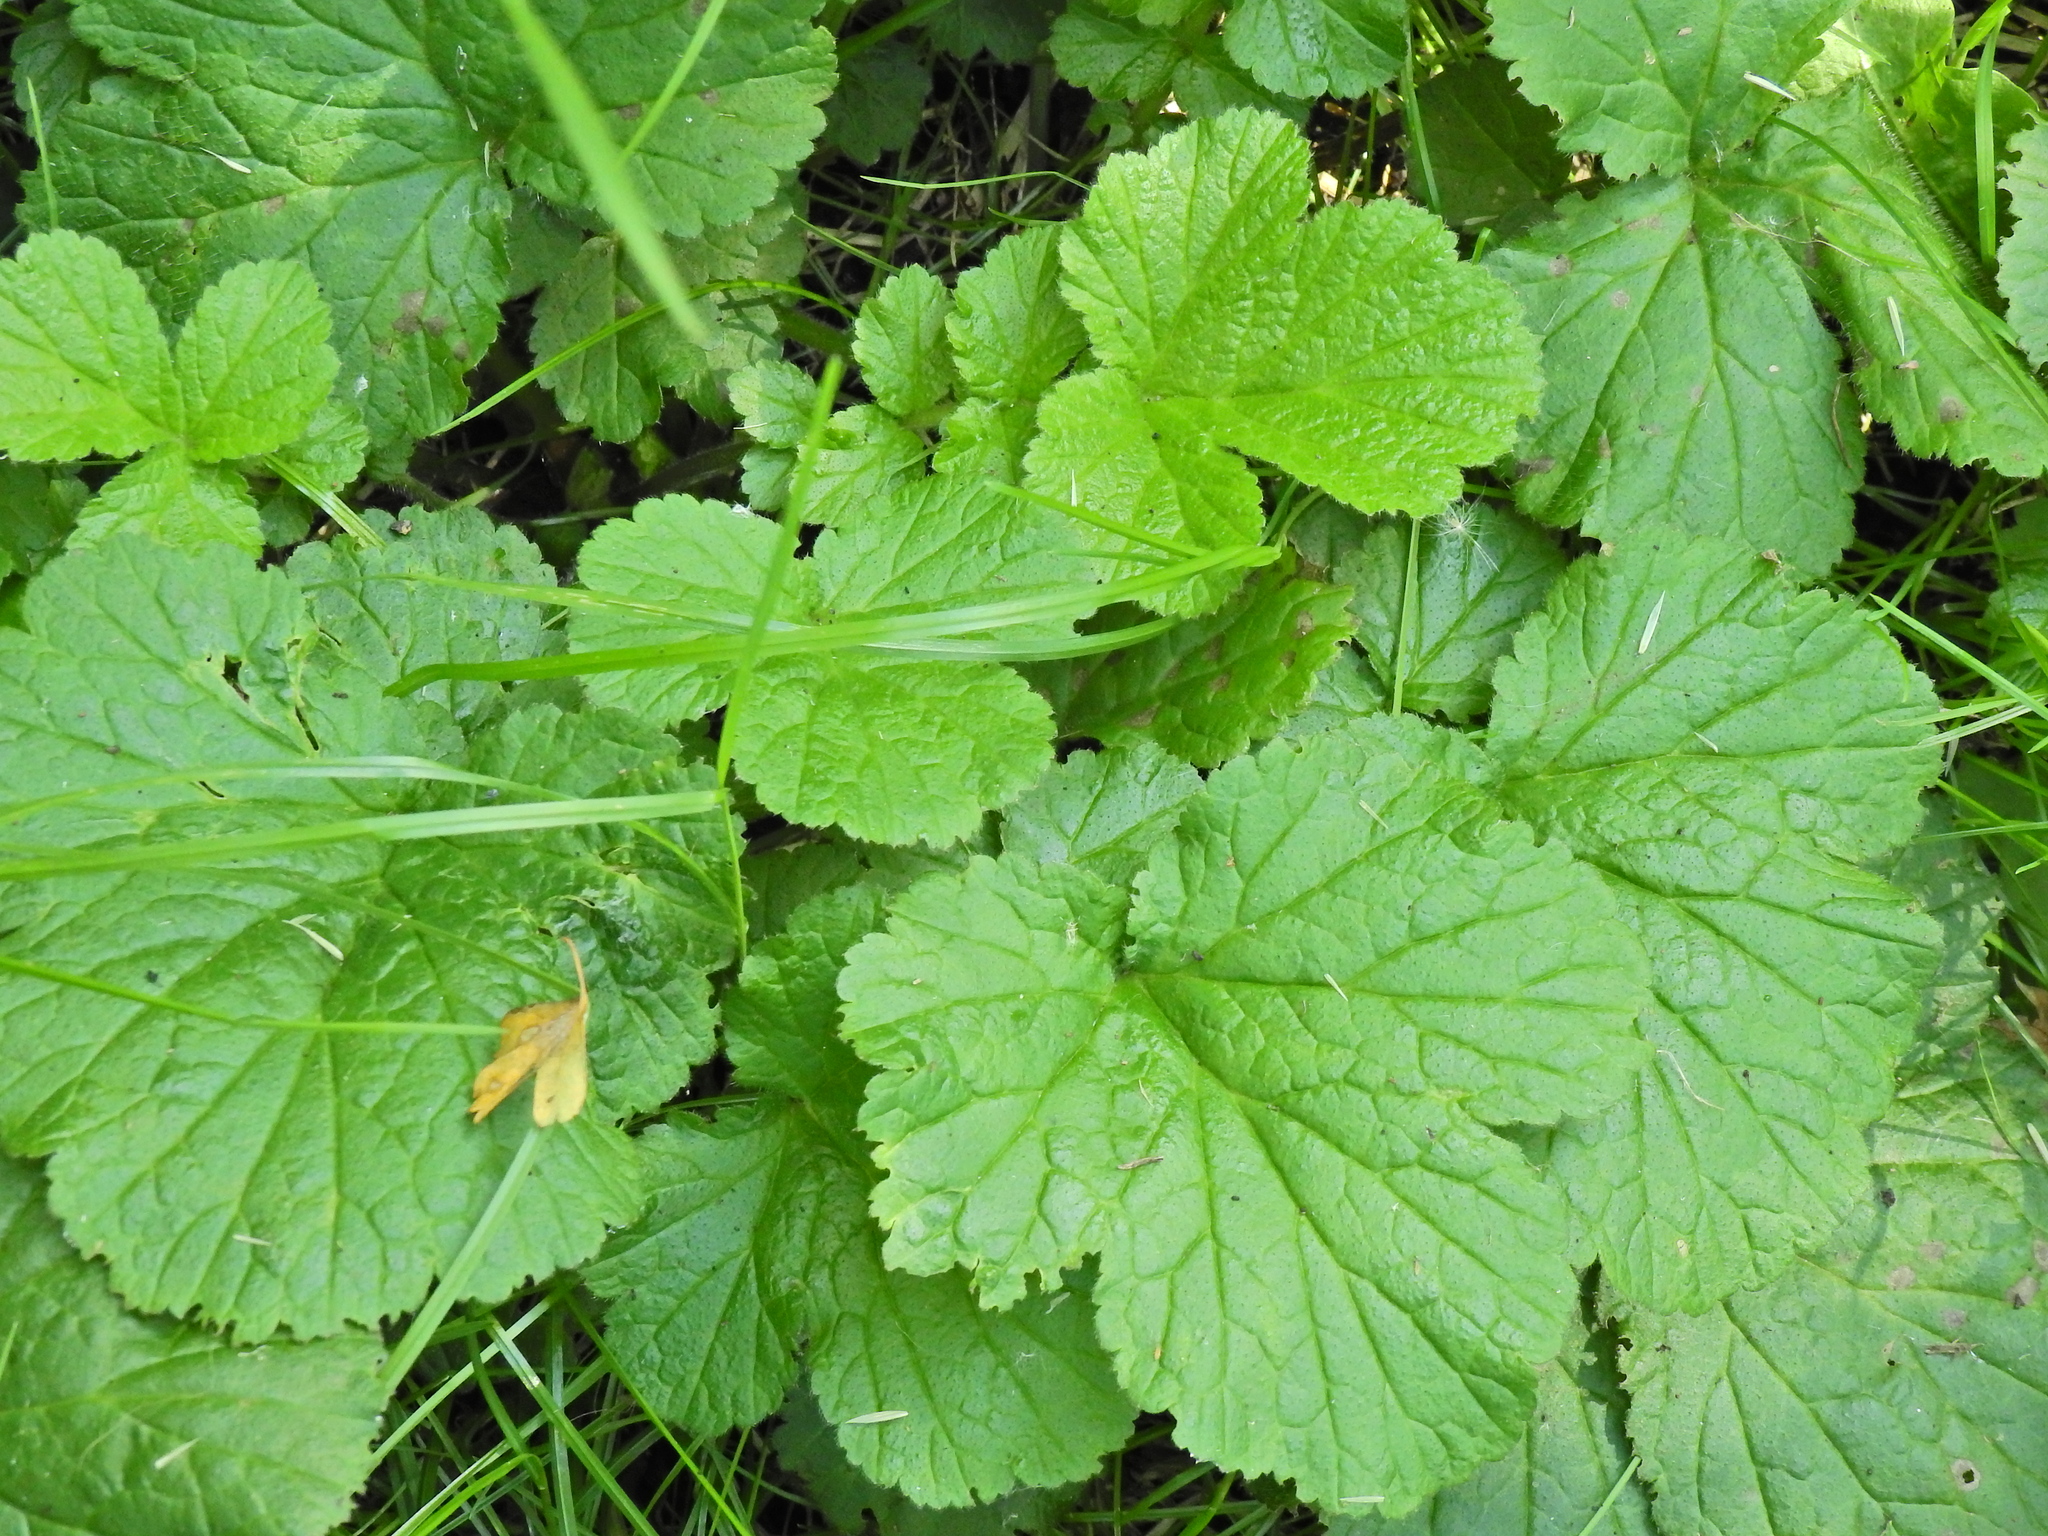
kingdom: Plantae
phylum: Tracheophyta
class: Magnoliopsida
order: Rosales
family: Rosaceae
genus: Geum
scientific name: Geum urbanum
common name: Wood avens
